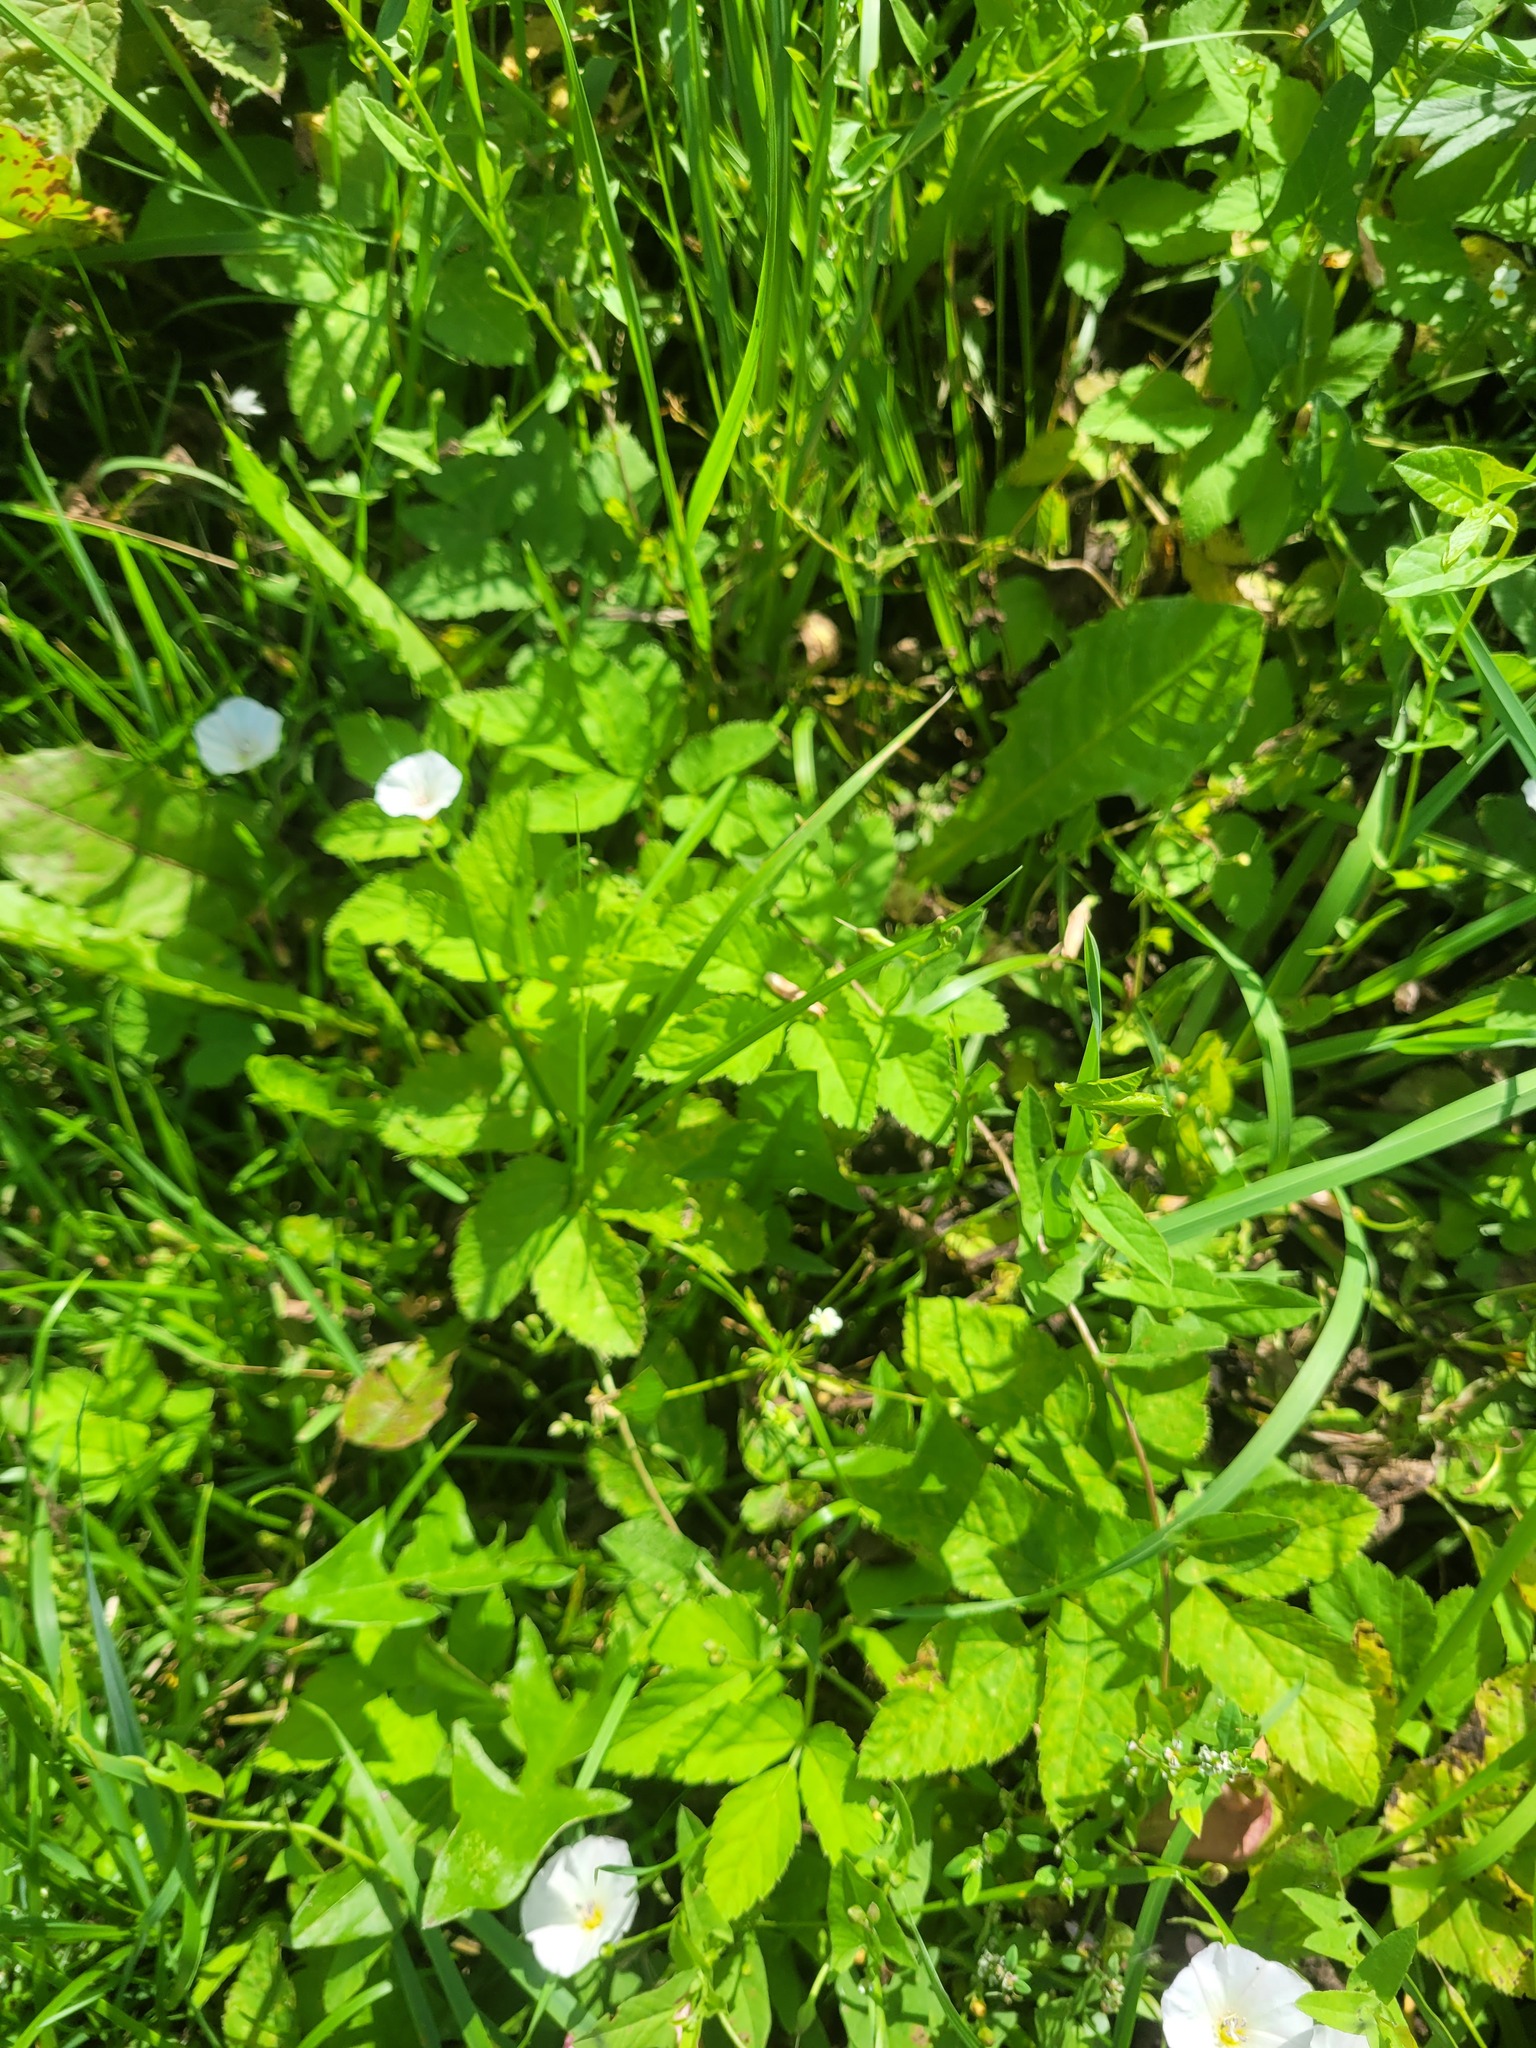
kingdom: Plantae
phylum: Tracheophyta
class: Magnoliopsida
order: Apiales
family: Apiaceae
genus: Aegopodium
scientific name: Aegopodium podagraria
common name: Ground-elder
